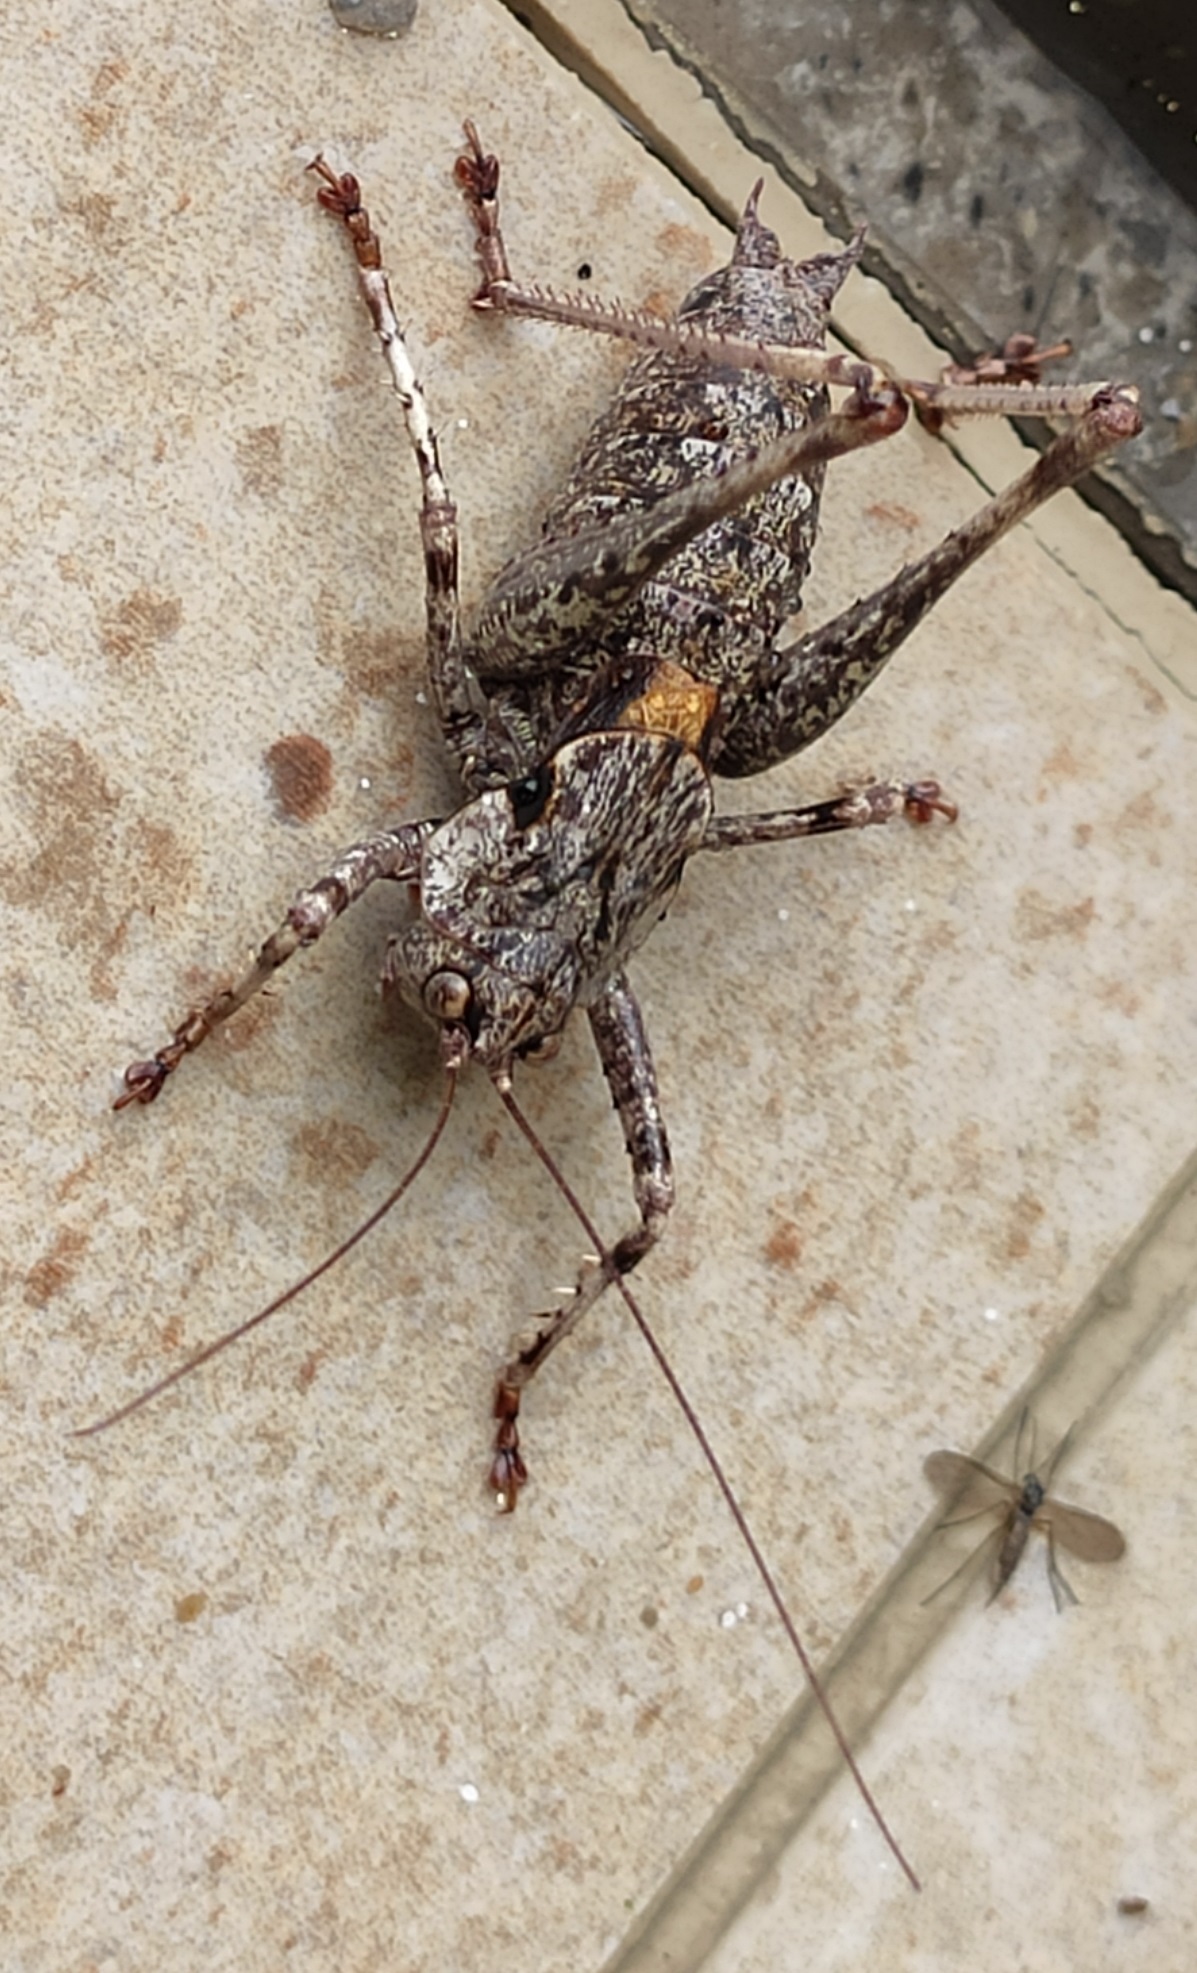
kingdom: Animalia
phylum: Arthropoda
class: Insecta
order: Orthoptera
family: Tettigoniidae
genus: Thyreonotus
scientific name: Thyreonotus bidens
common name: Two-toothed bush-cricket
